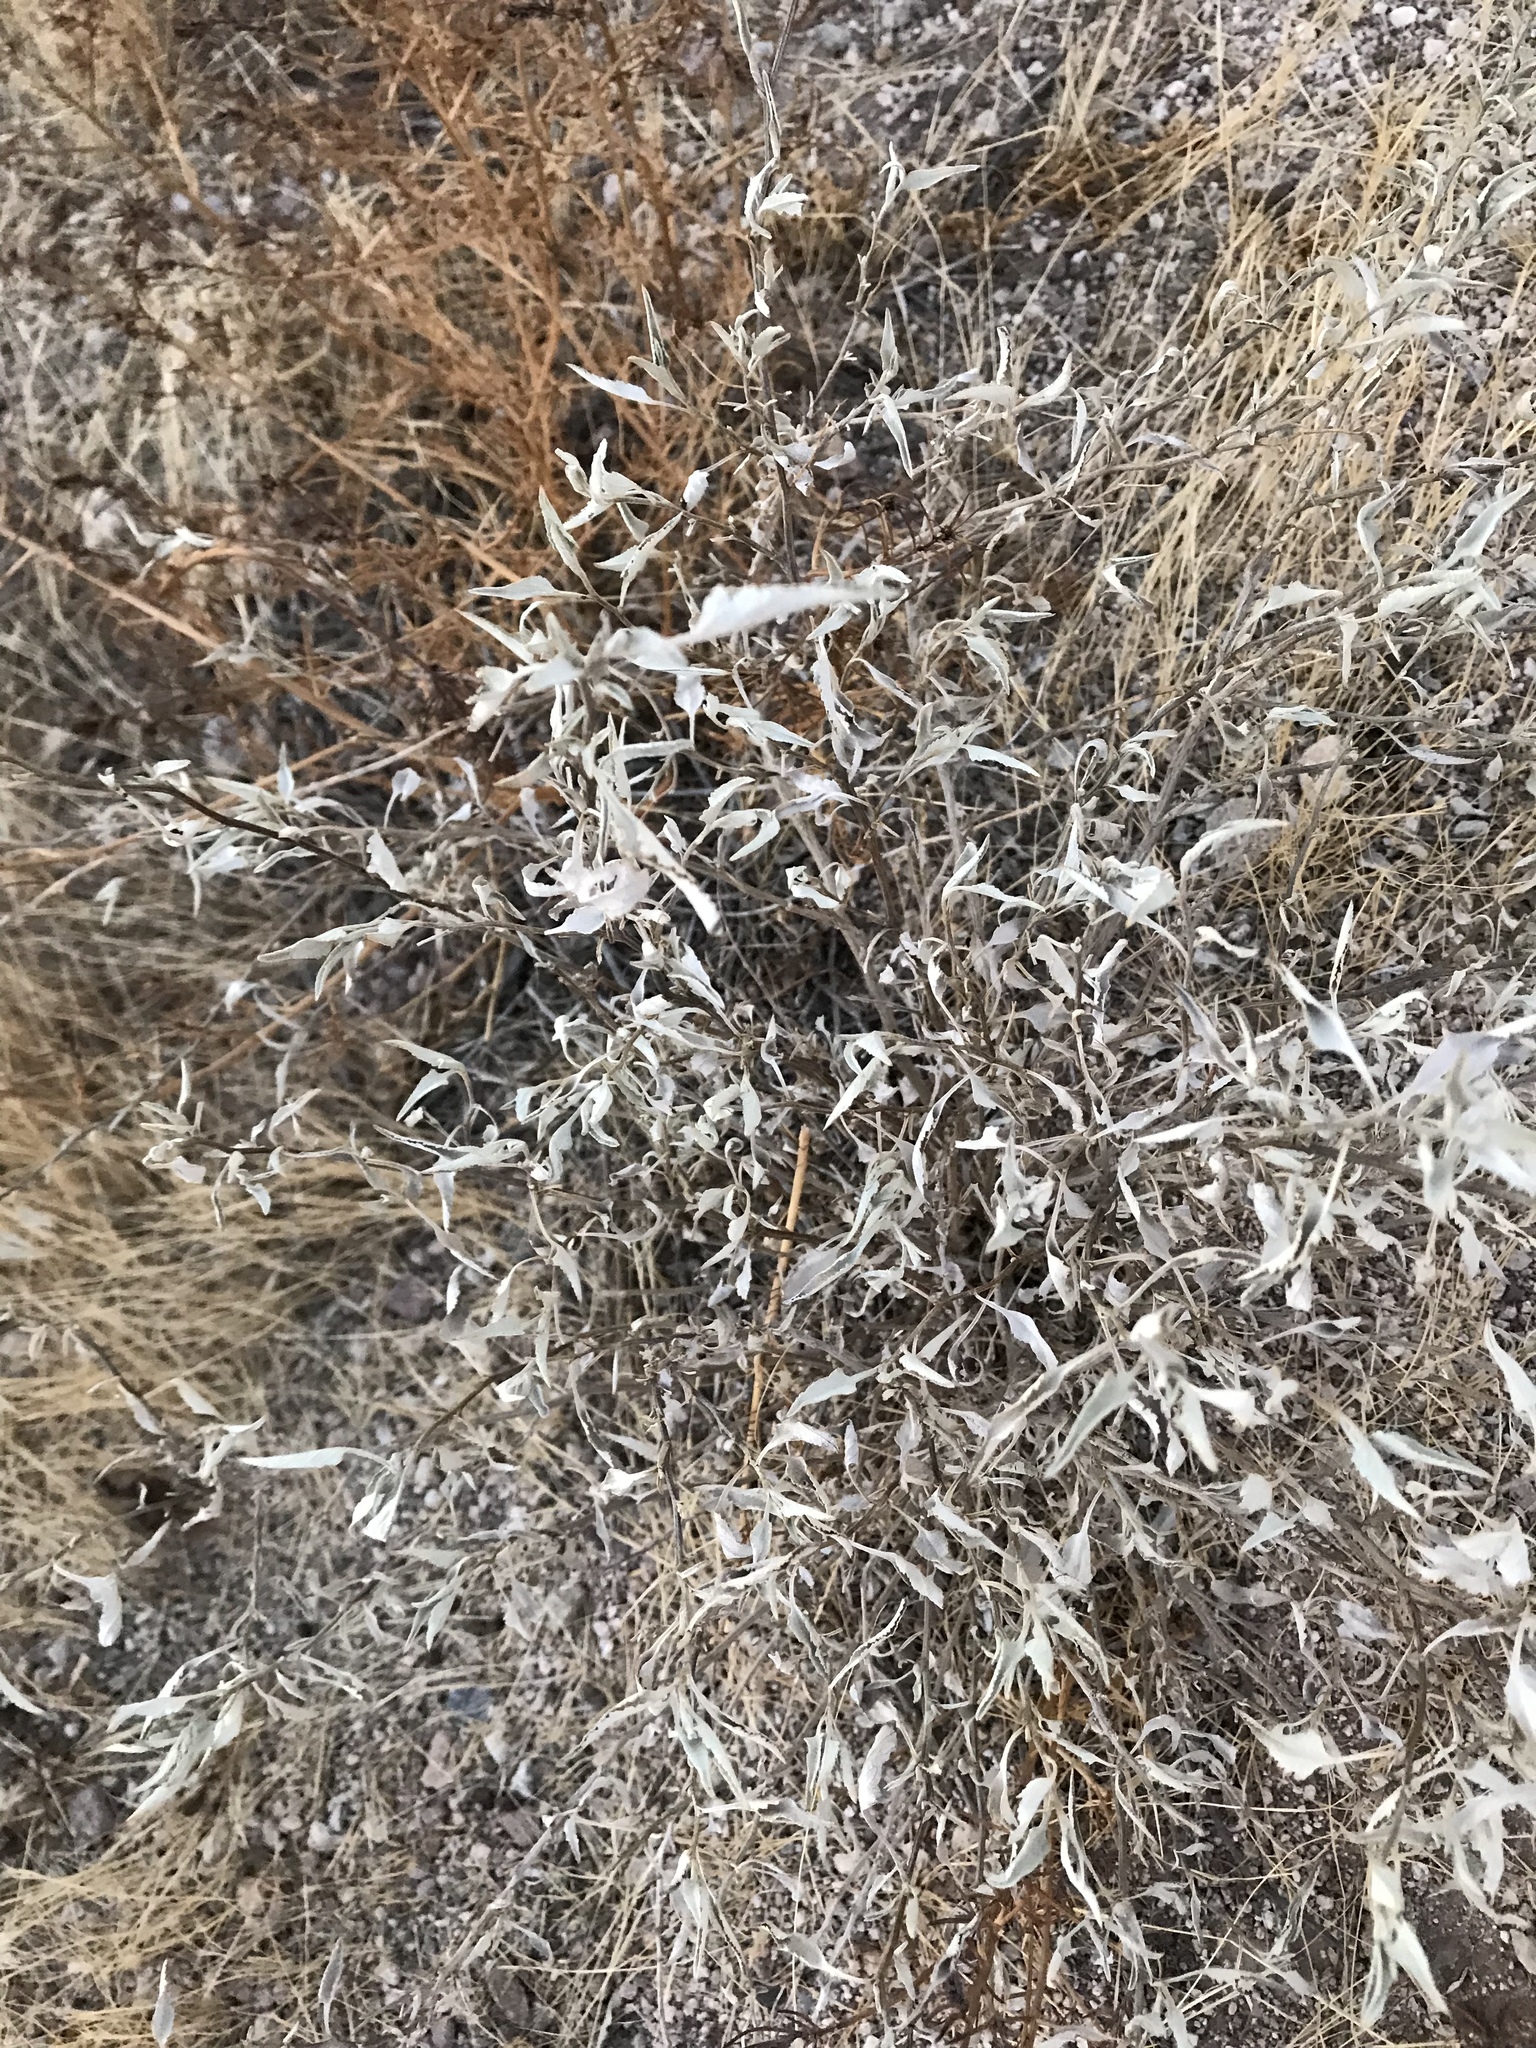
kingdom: Plantae
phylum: Tracheophyta
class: Magnoliopsida
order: Asterales
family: Asteraceae
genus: Ambrosia
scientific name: Ambrosia deltoidea
